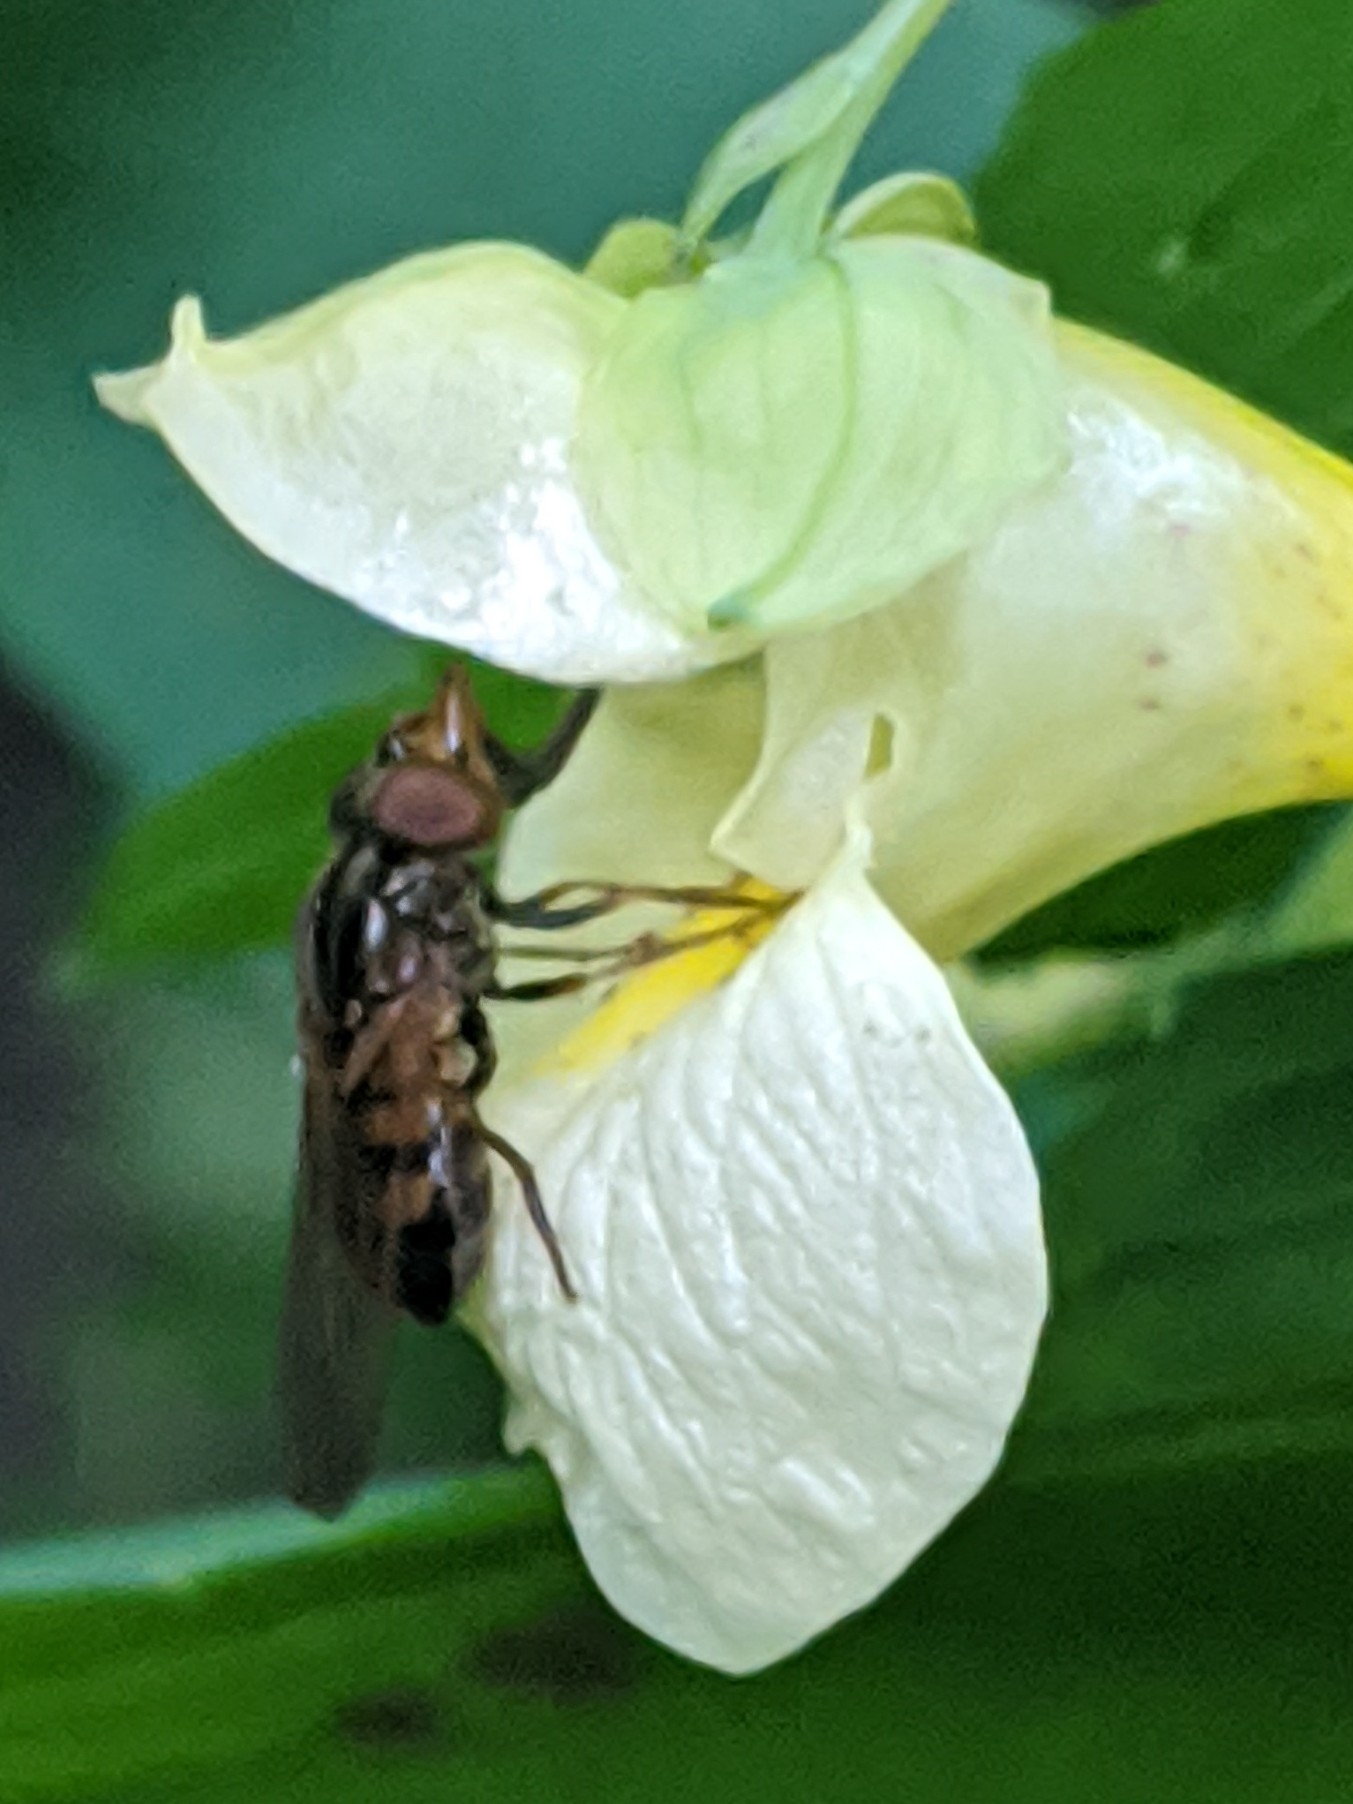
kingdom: Animalia
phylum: Arthropoda
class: Insecta
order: Diptera
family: Syrphidae
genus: Rhingia
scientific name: Rhingia nasica
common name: American snout fly
